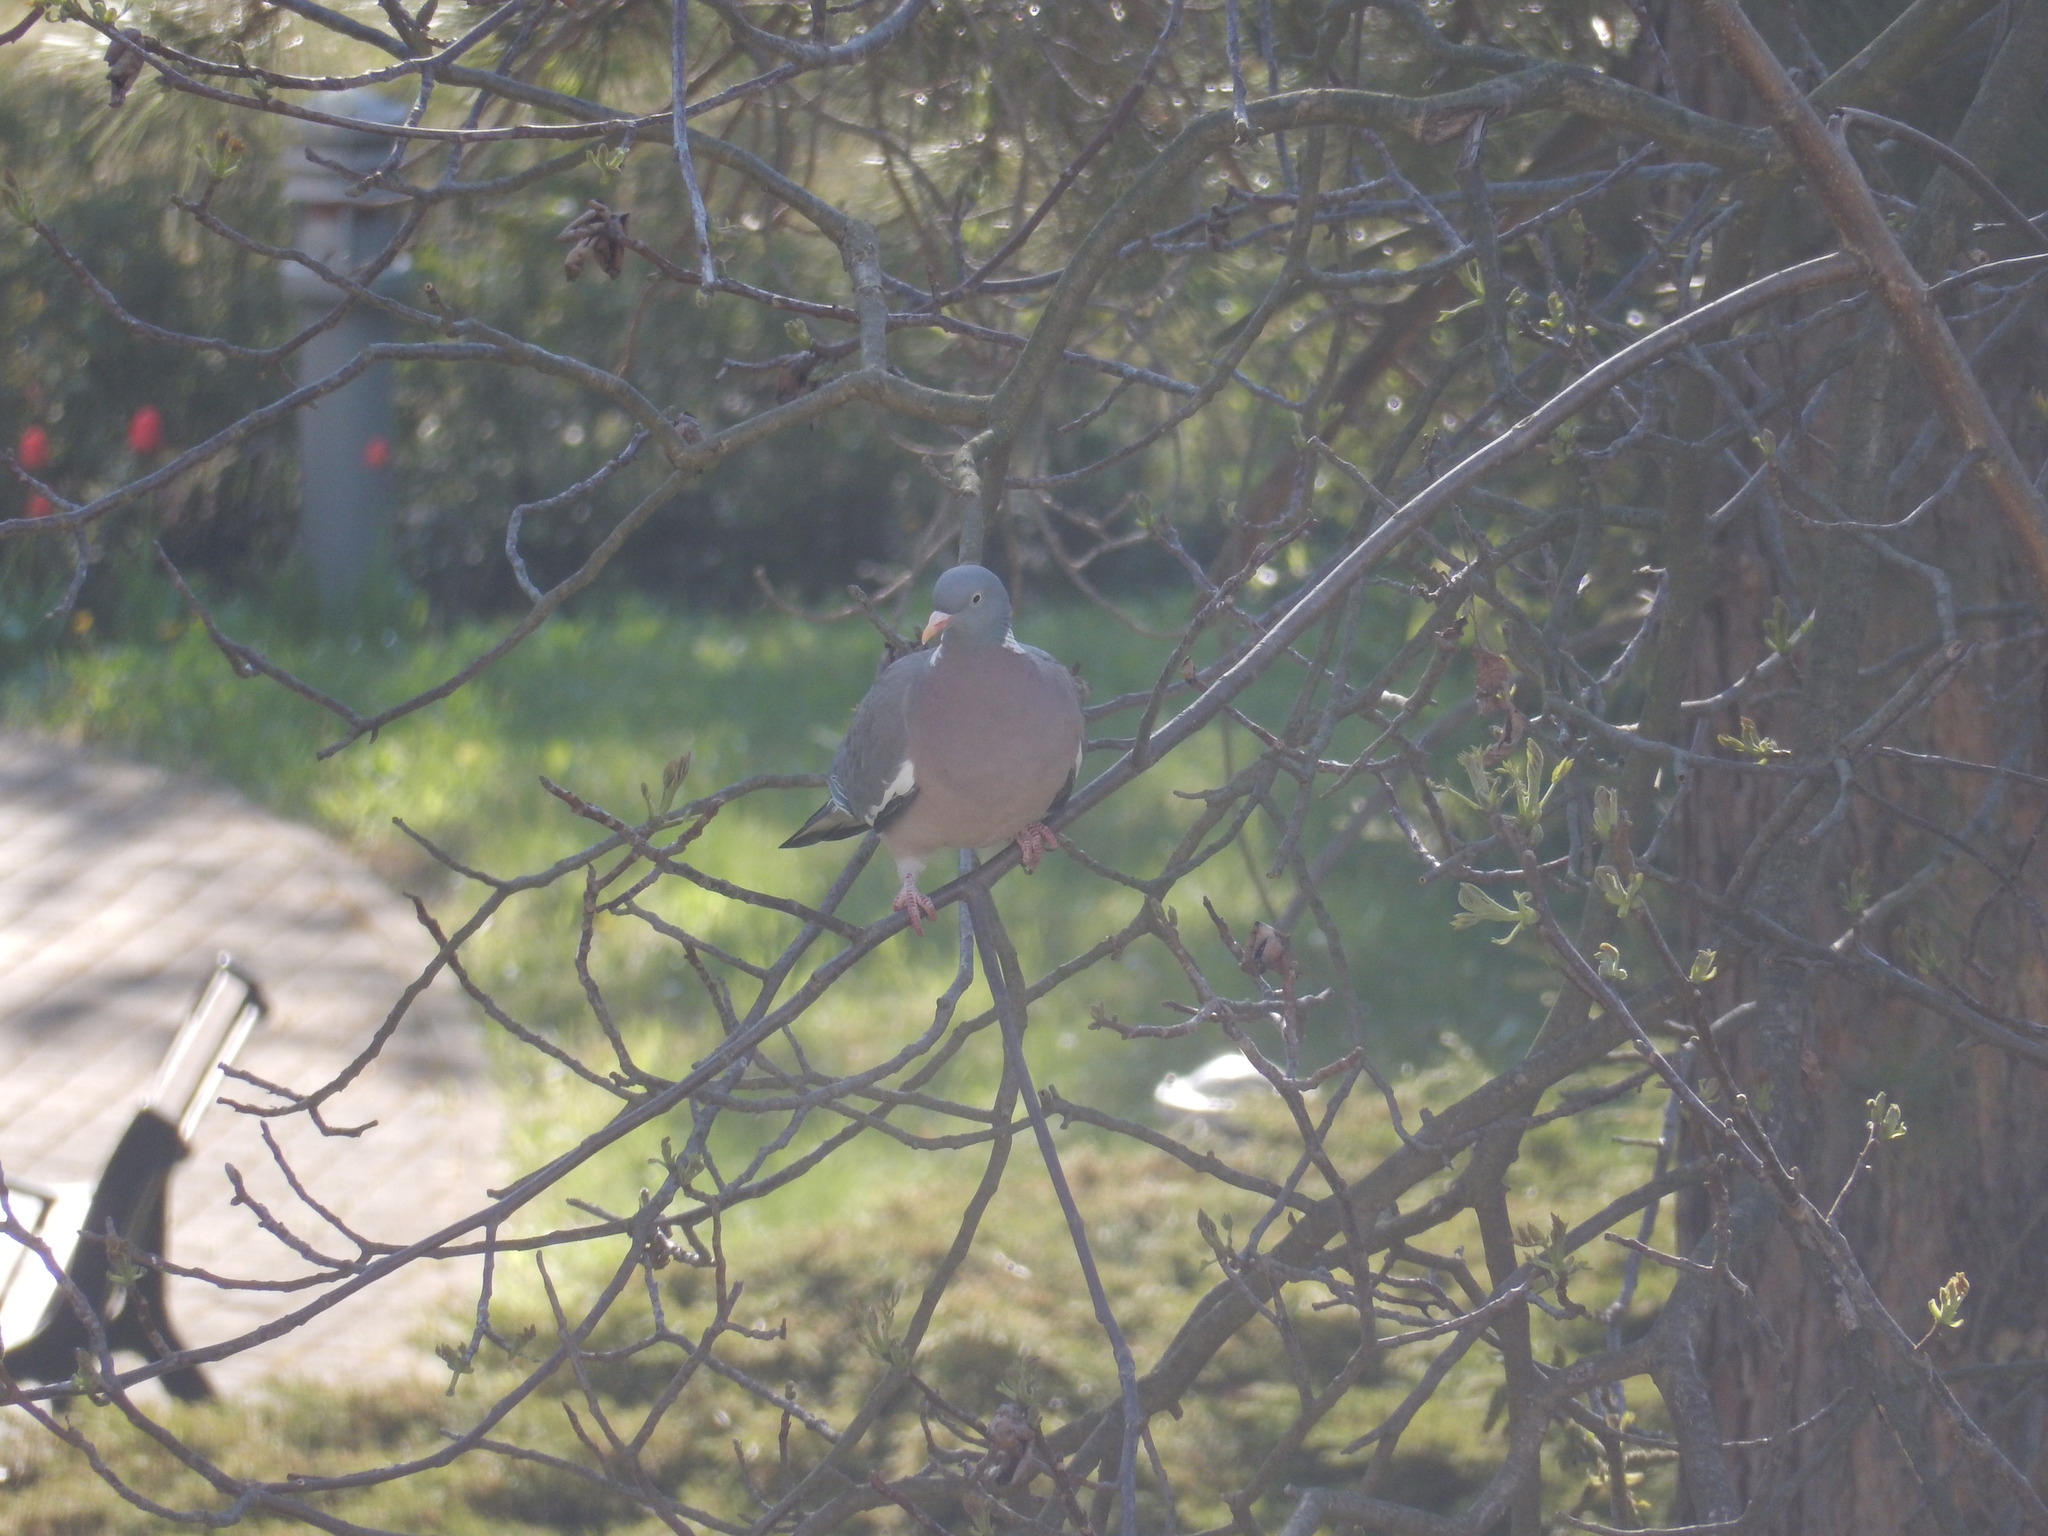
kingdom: Animalia
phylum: Chordata
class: Aves
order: Columbiformes
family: Columbidae
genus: Columba
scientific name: Columba palumbus
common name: Common wood pigeon
